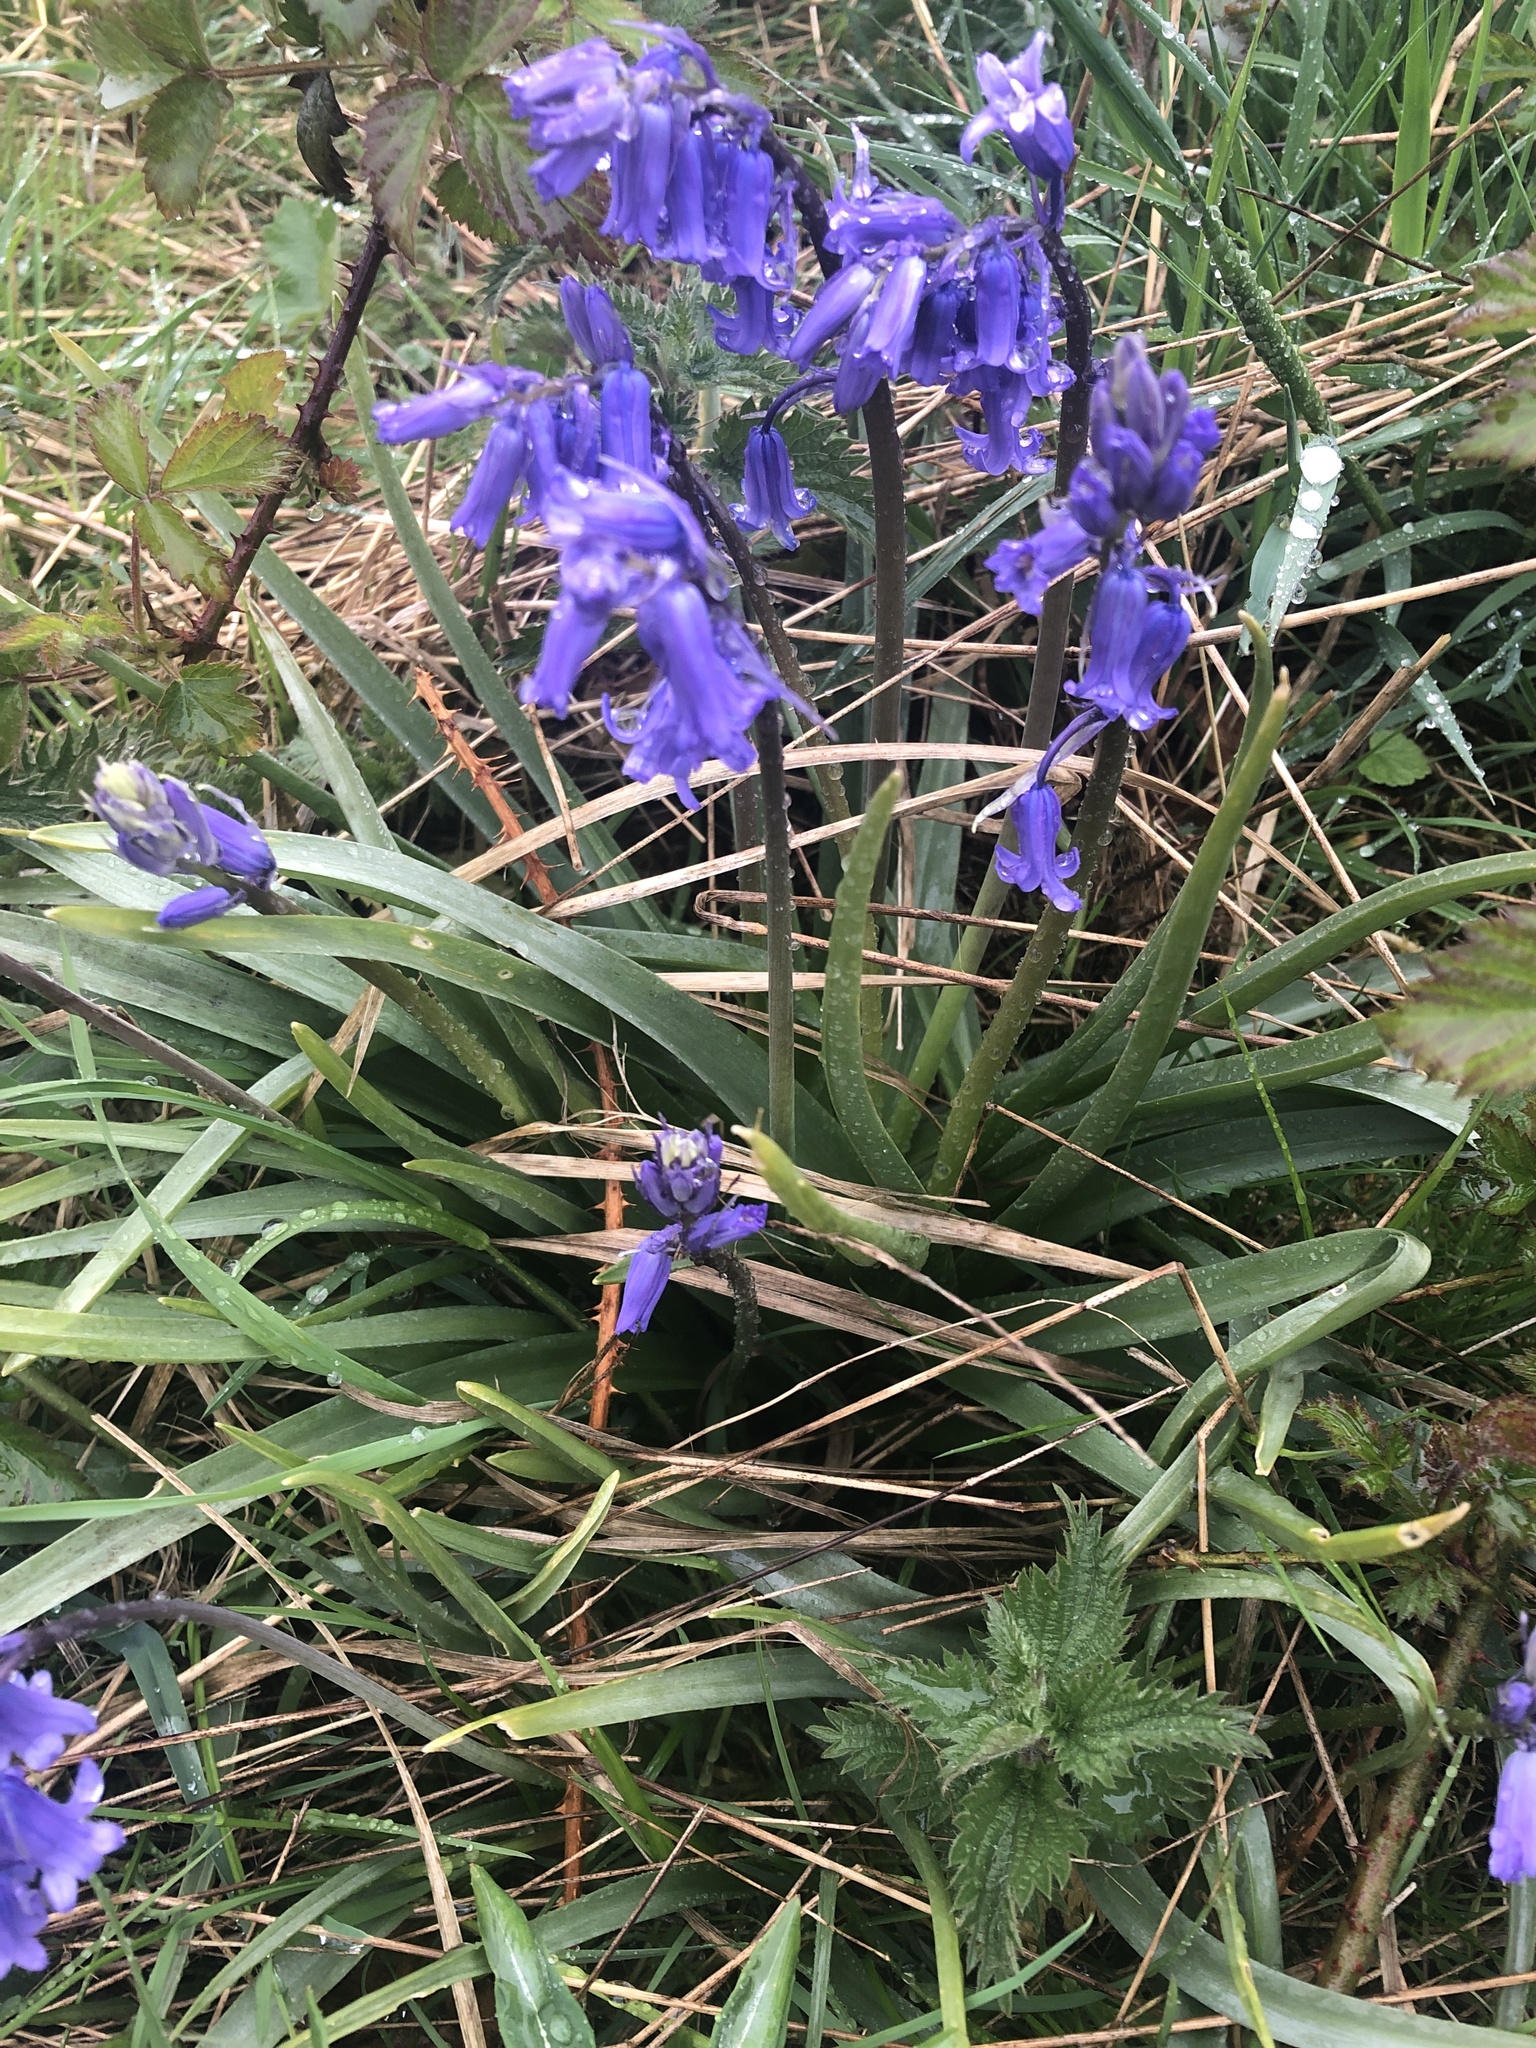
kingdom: Plantae
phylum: Tracheophyta
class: Liliopsida
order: Asparagales
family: Asparagaceae
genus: Hyacinthoides
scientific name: Hyacinthoides non-scripta
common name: Bluebell
